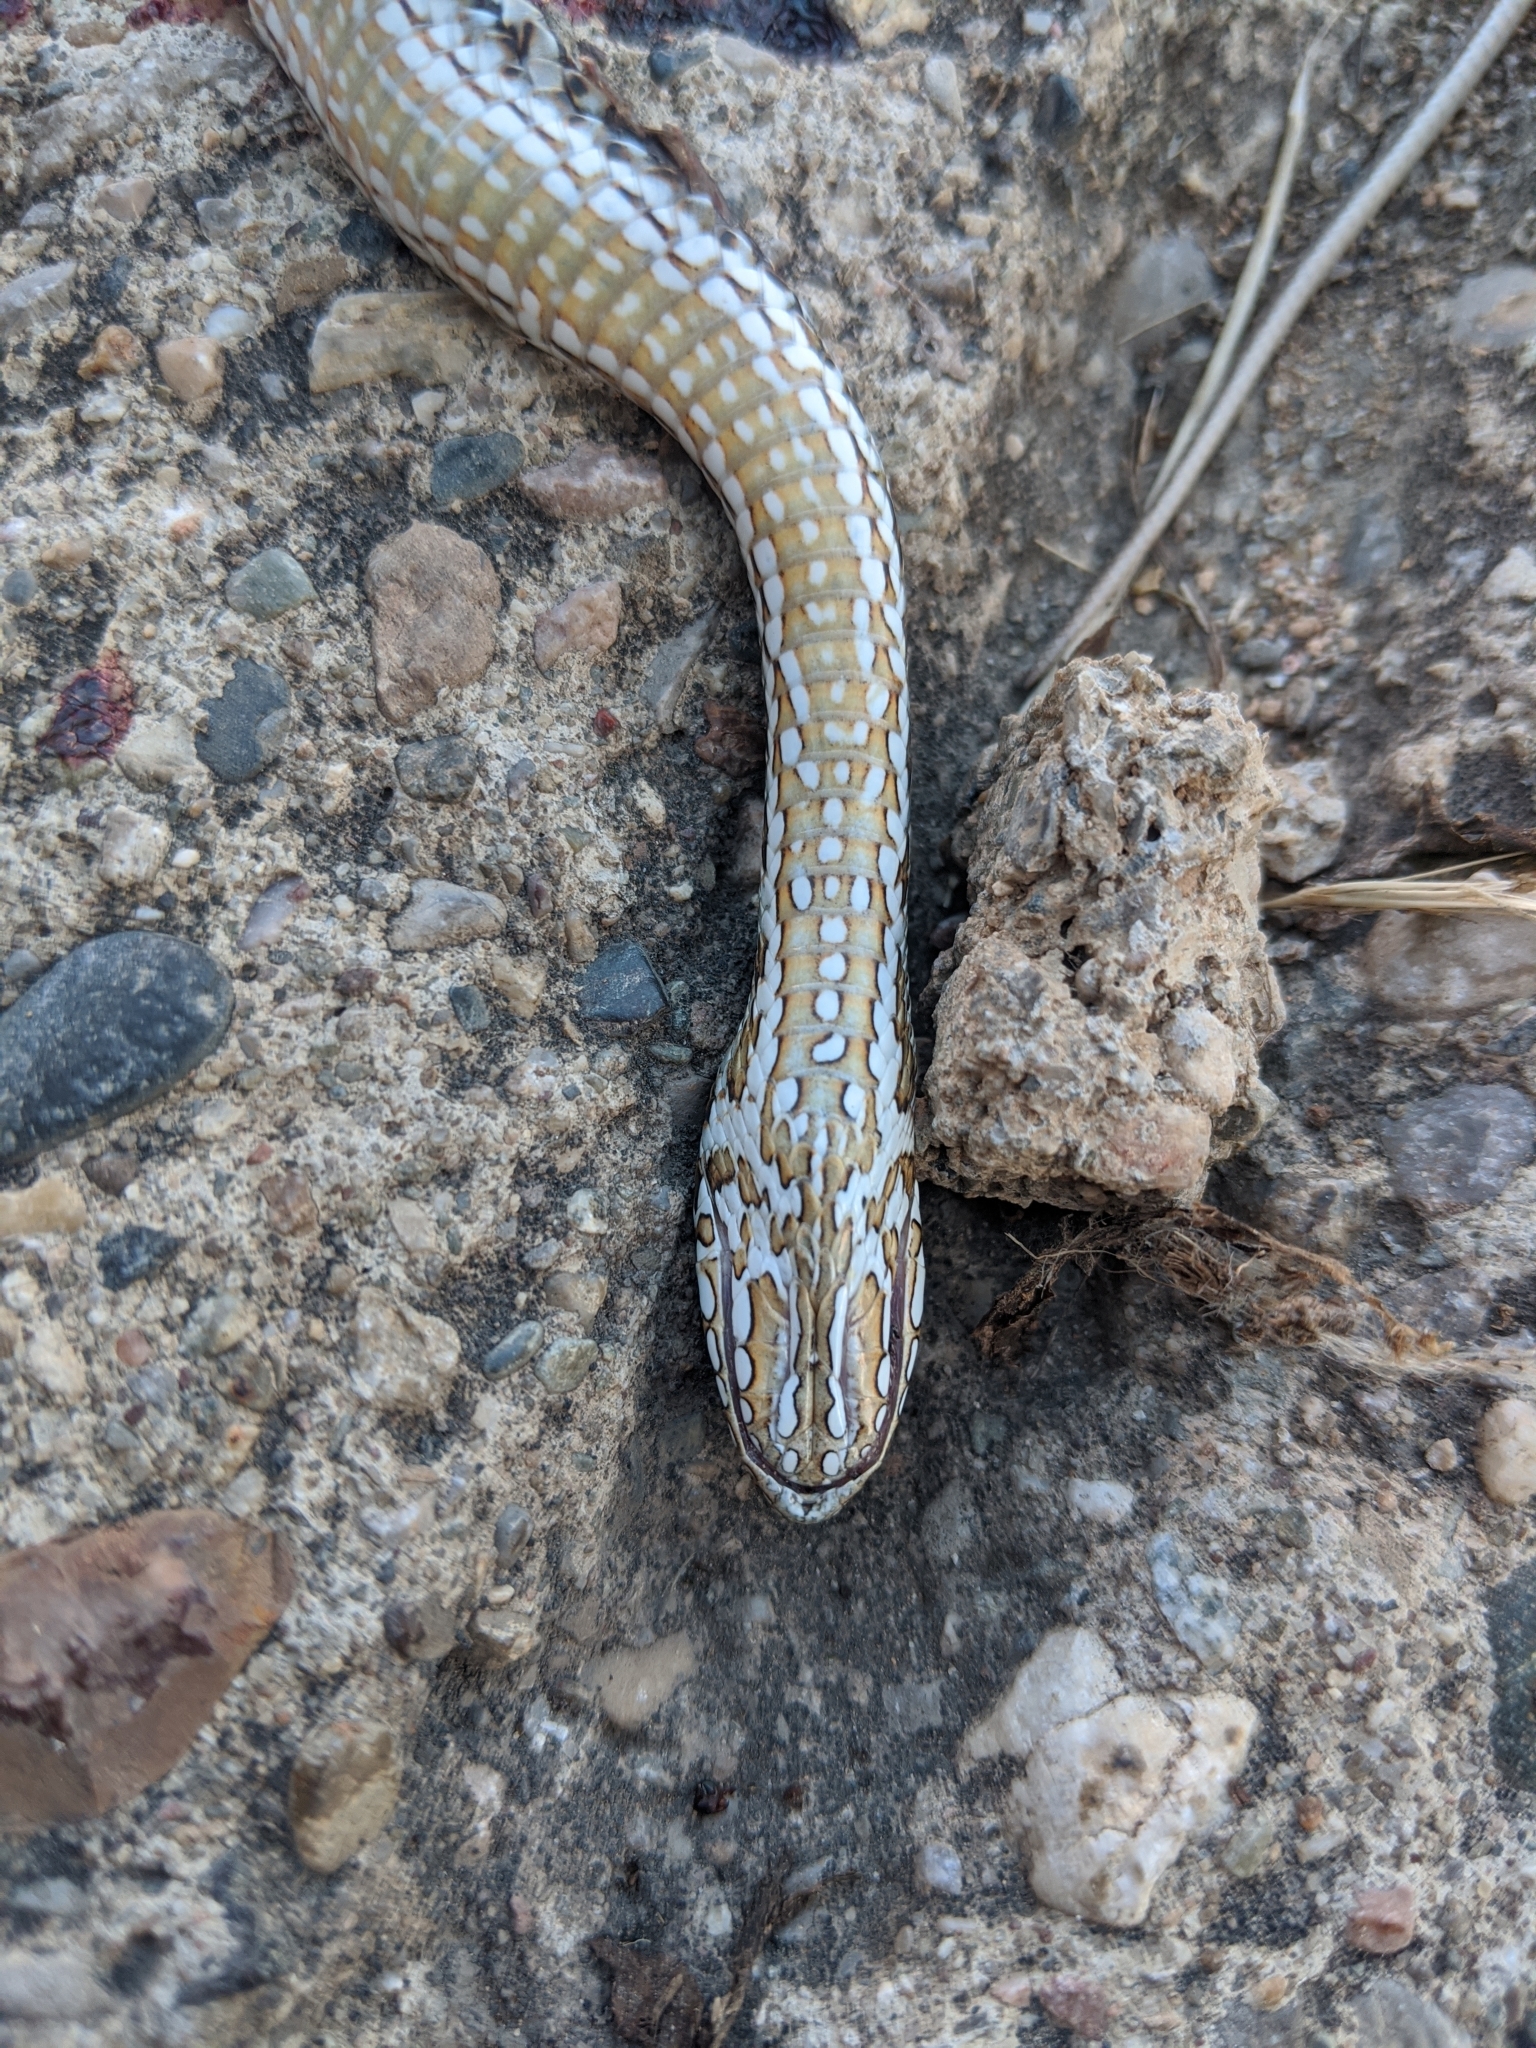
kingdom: Animalia
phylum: Chordata
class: Squamata
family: Psammophiidae
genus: Malpolon
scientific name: Malpolon monspessulanus
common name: Montpellier snake
